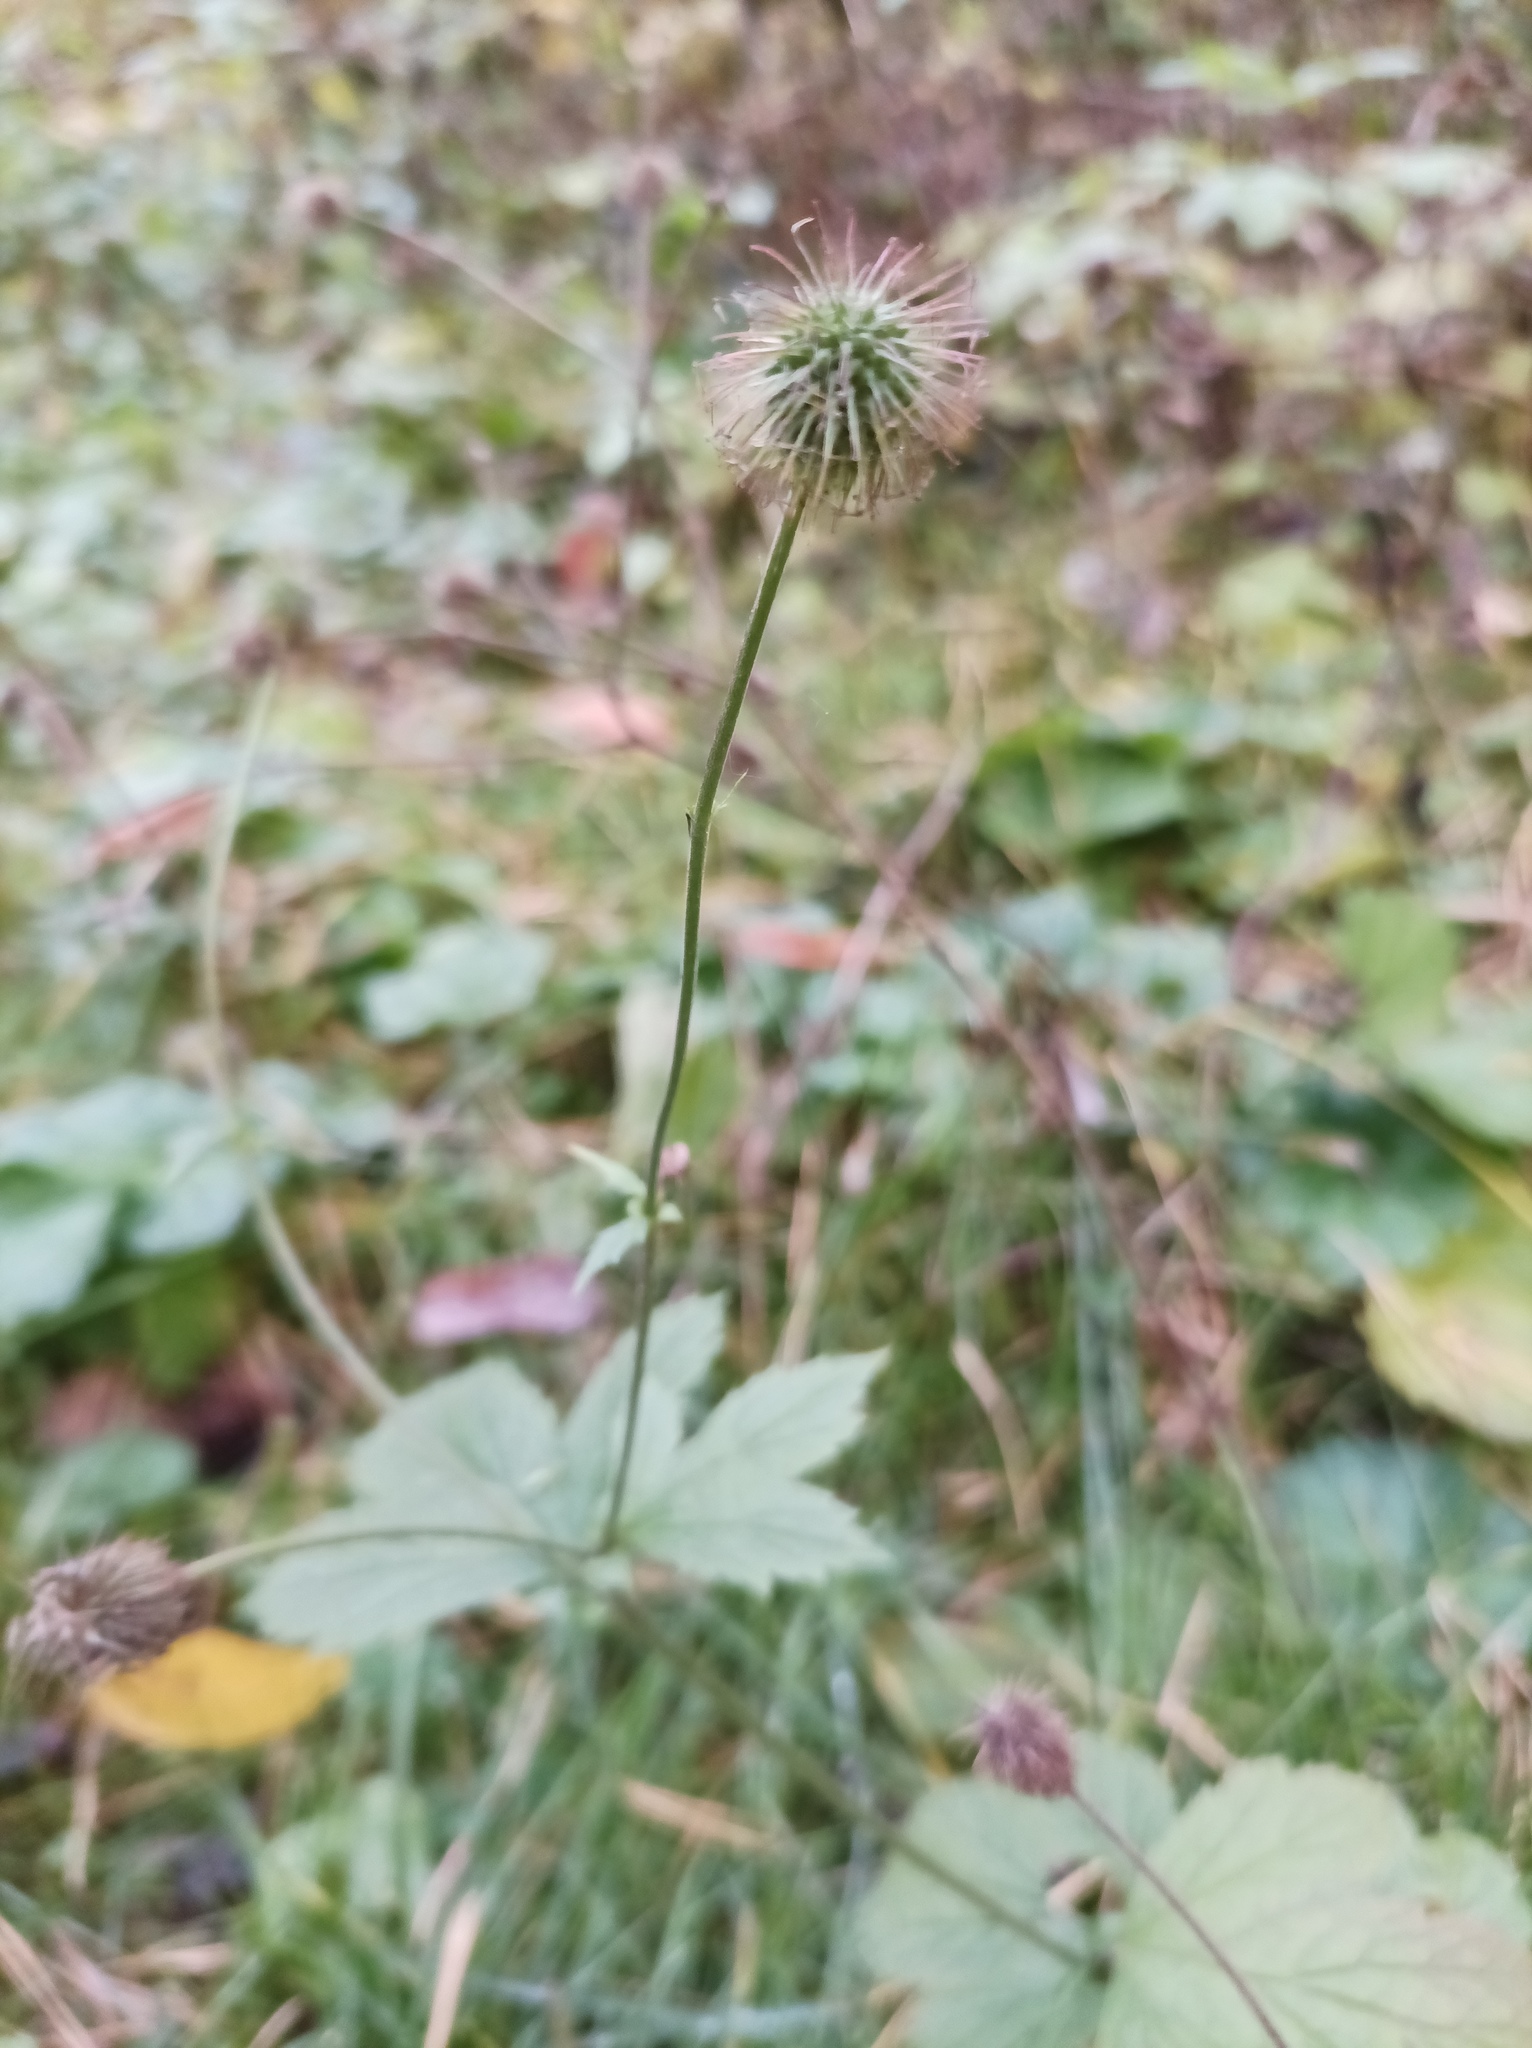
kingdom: Plantae
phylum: Tracheophyta
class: Magnoliopsida
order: Rosales
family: Rosaceae
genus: Geum
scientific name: Geum urbanum
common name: Wood avens
